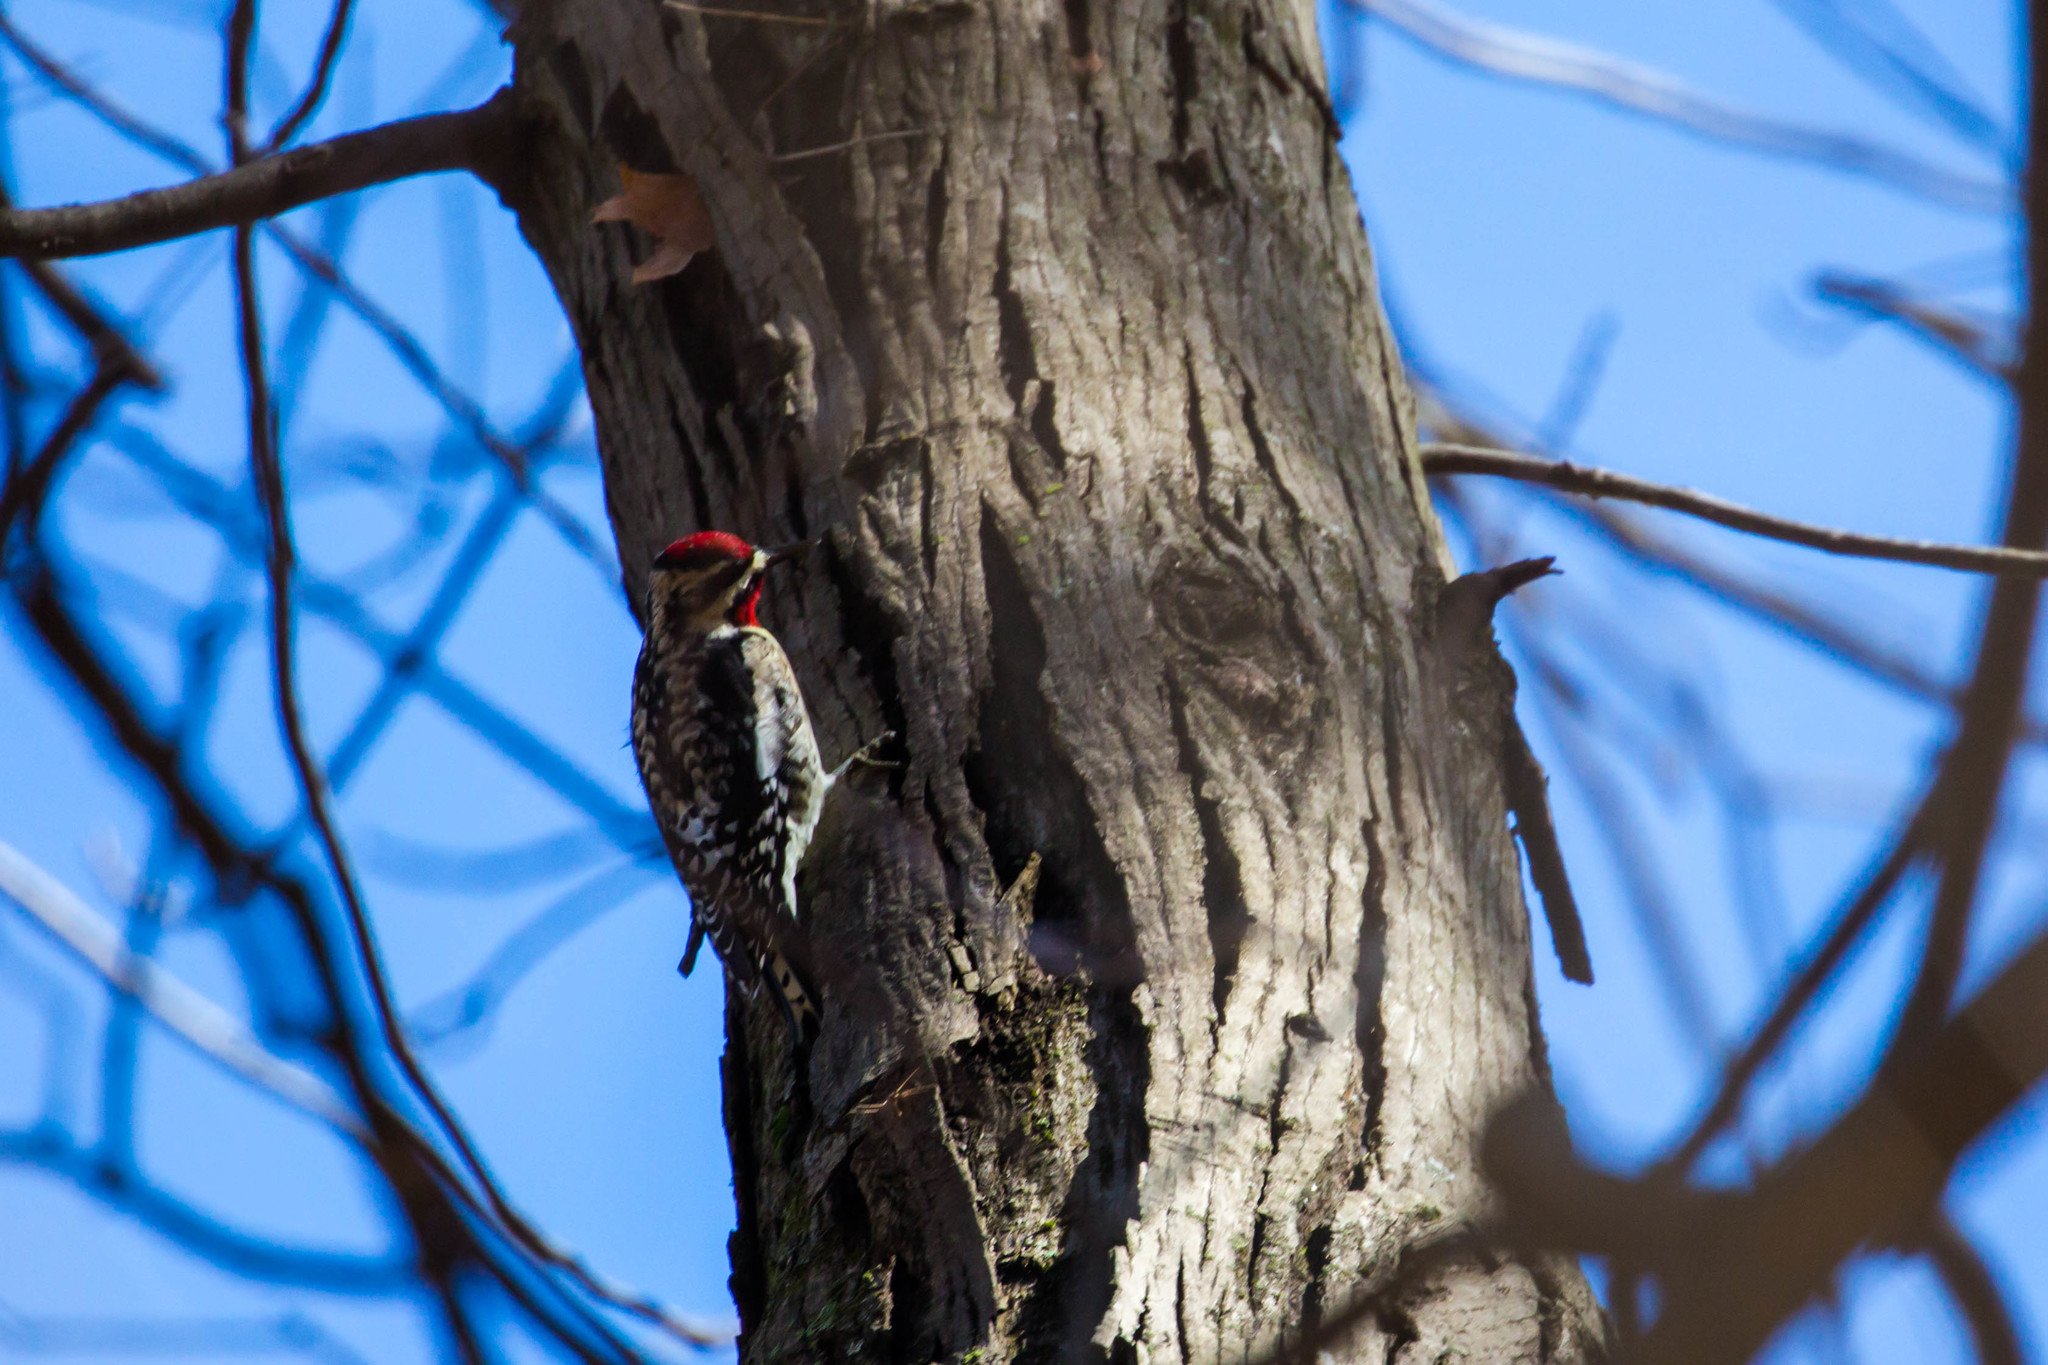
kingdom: Animalia
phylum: Chordata
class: Aves
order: Piciformes
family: Picidae
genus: Sphyrapicus
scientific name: Sphyrapicus varius
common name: Yellow-bellied sapsucker
